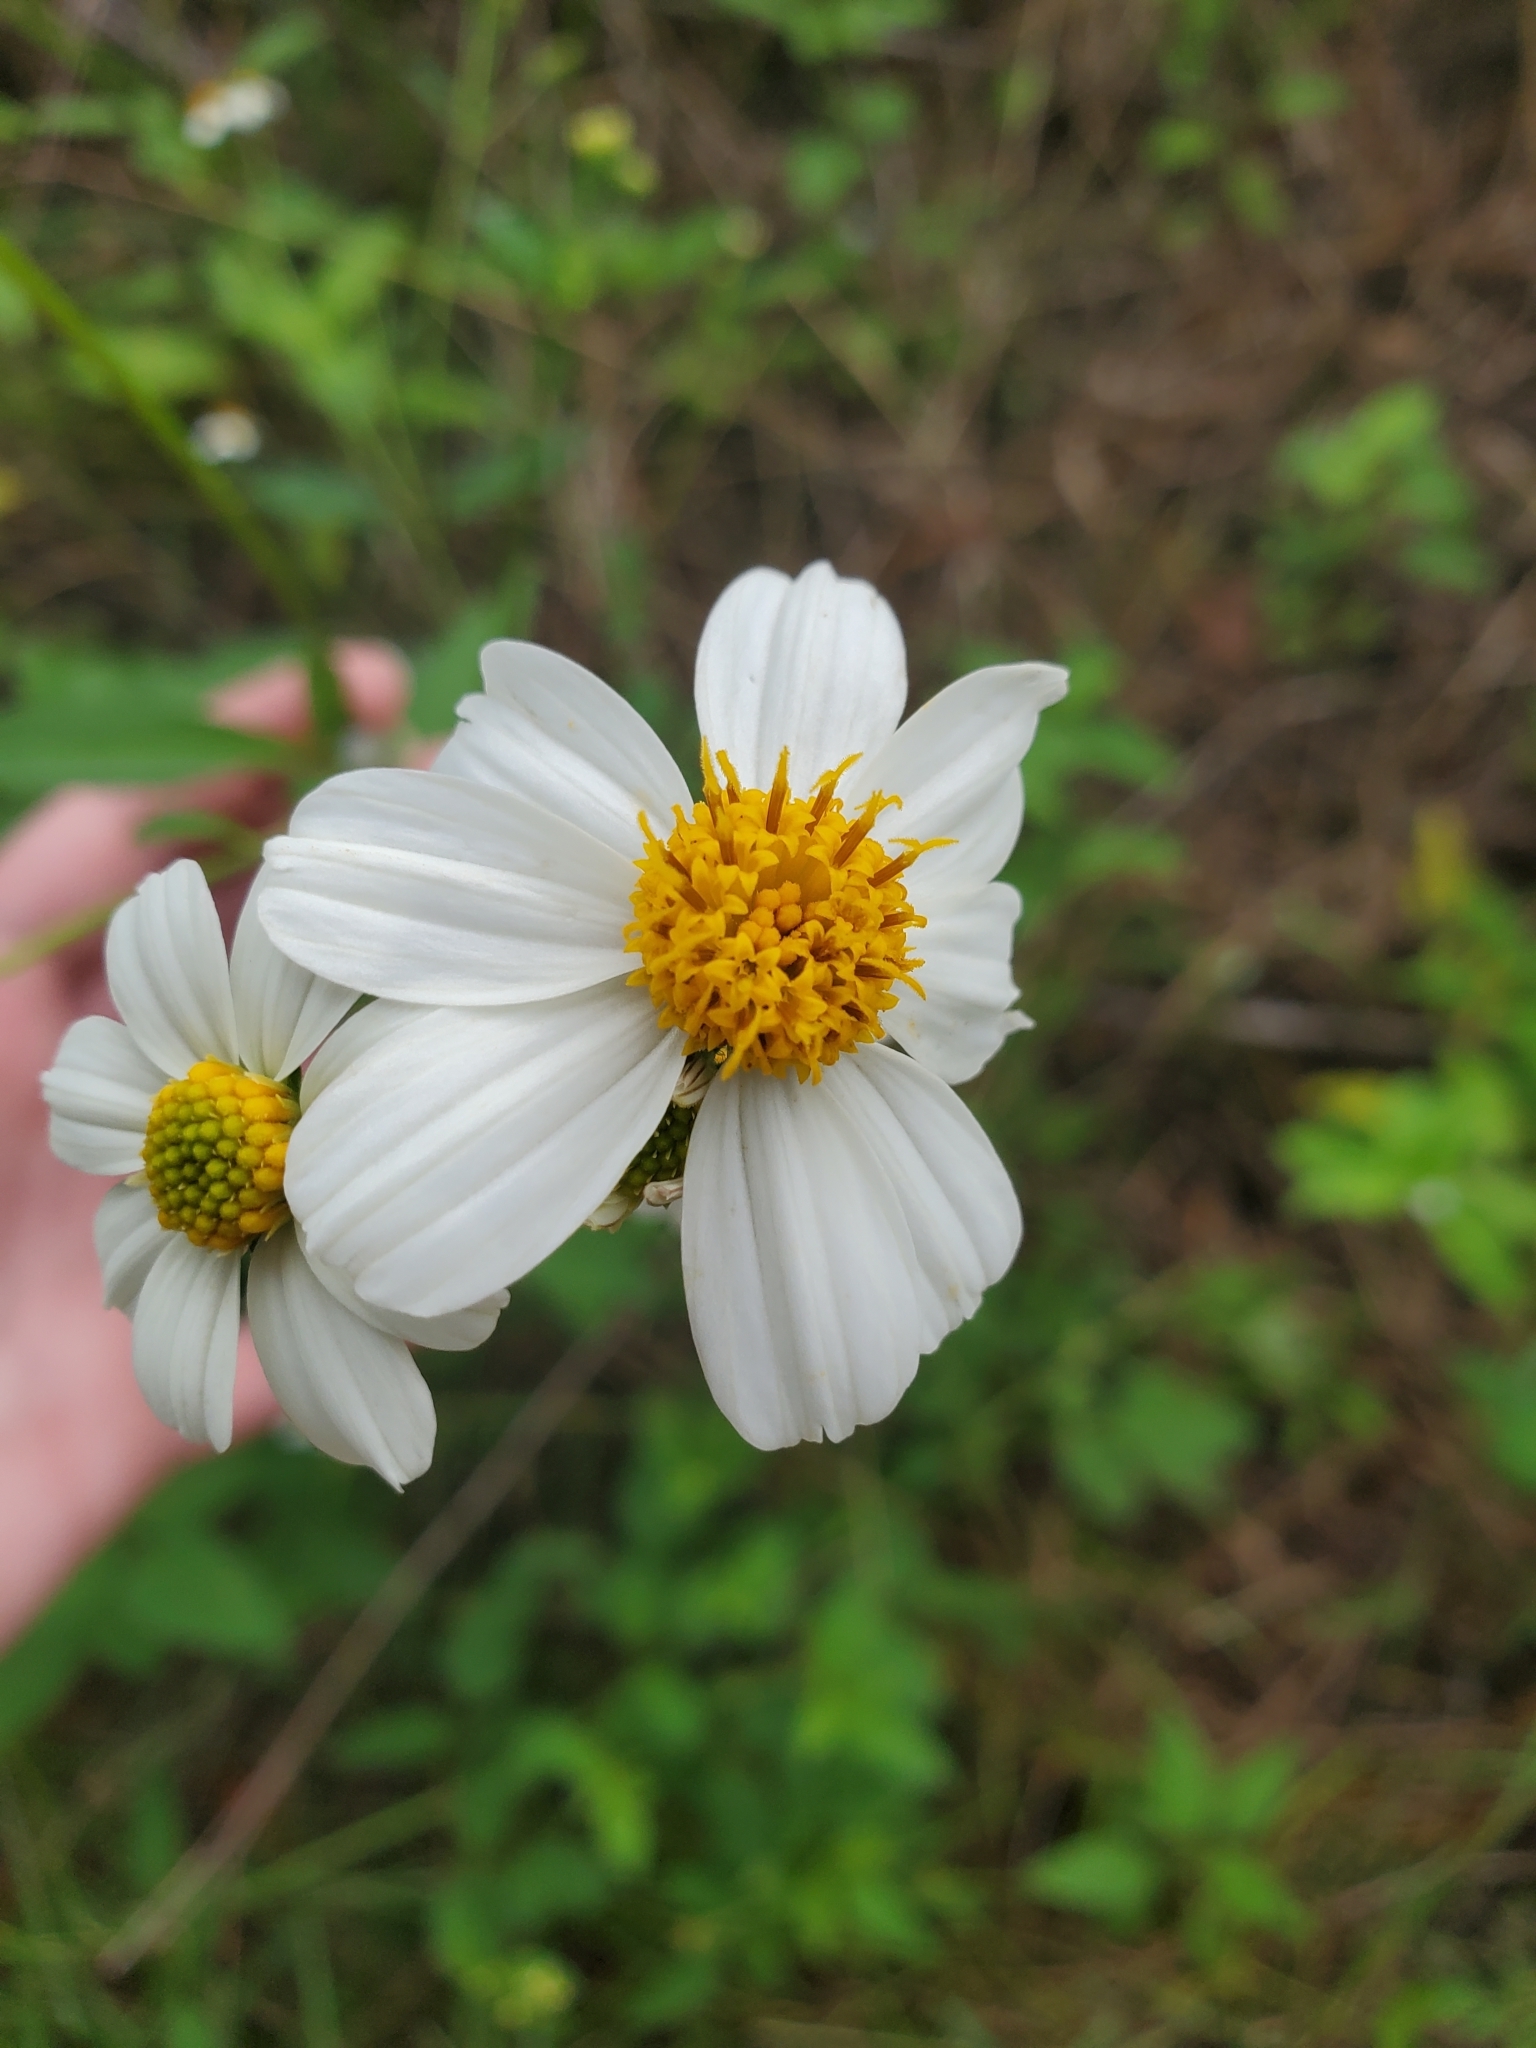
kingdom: Plantae
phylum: Tracheophyta
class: Magnoliopsida
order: Asterales
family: Asteraceae
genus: Bidens
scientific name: Bidens alba
